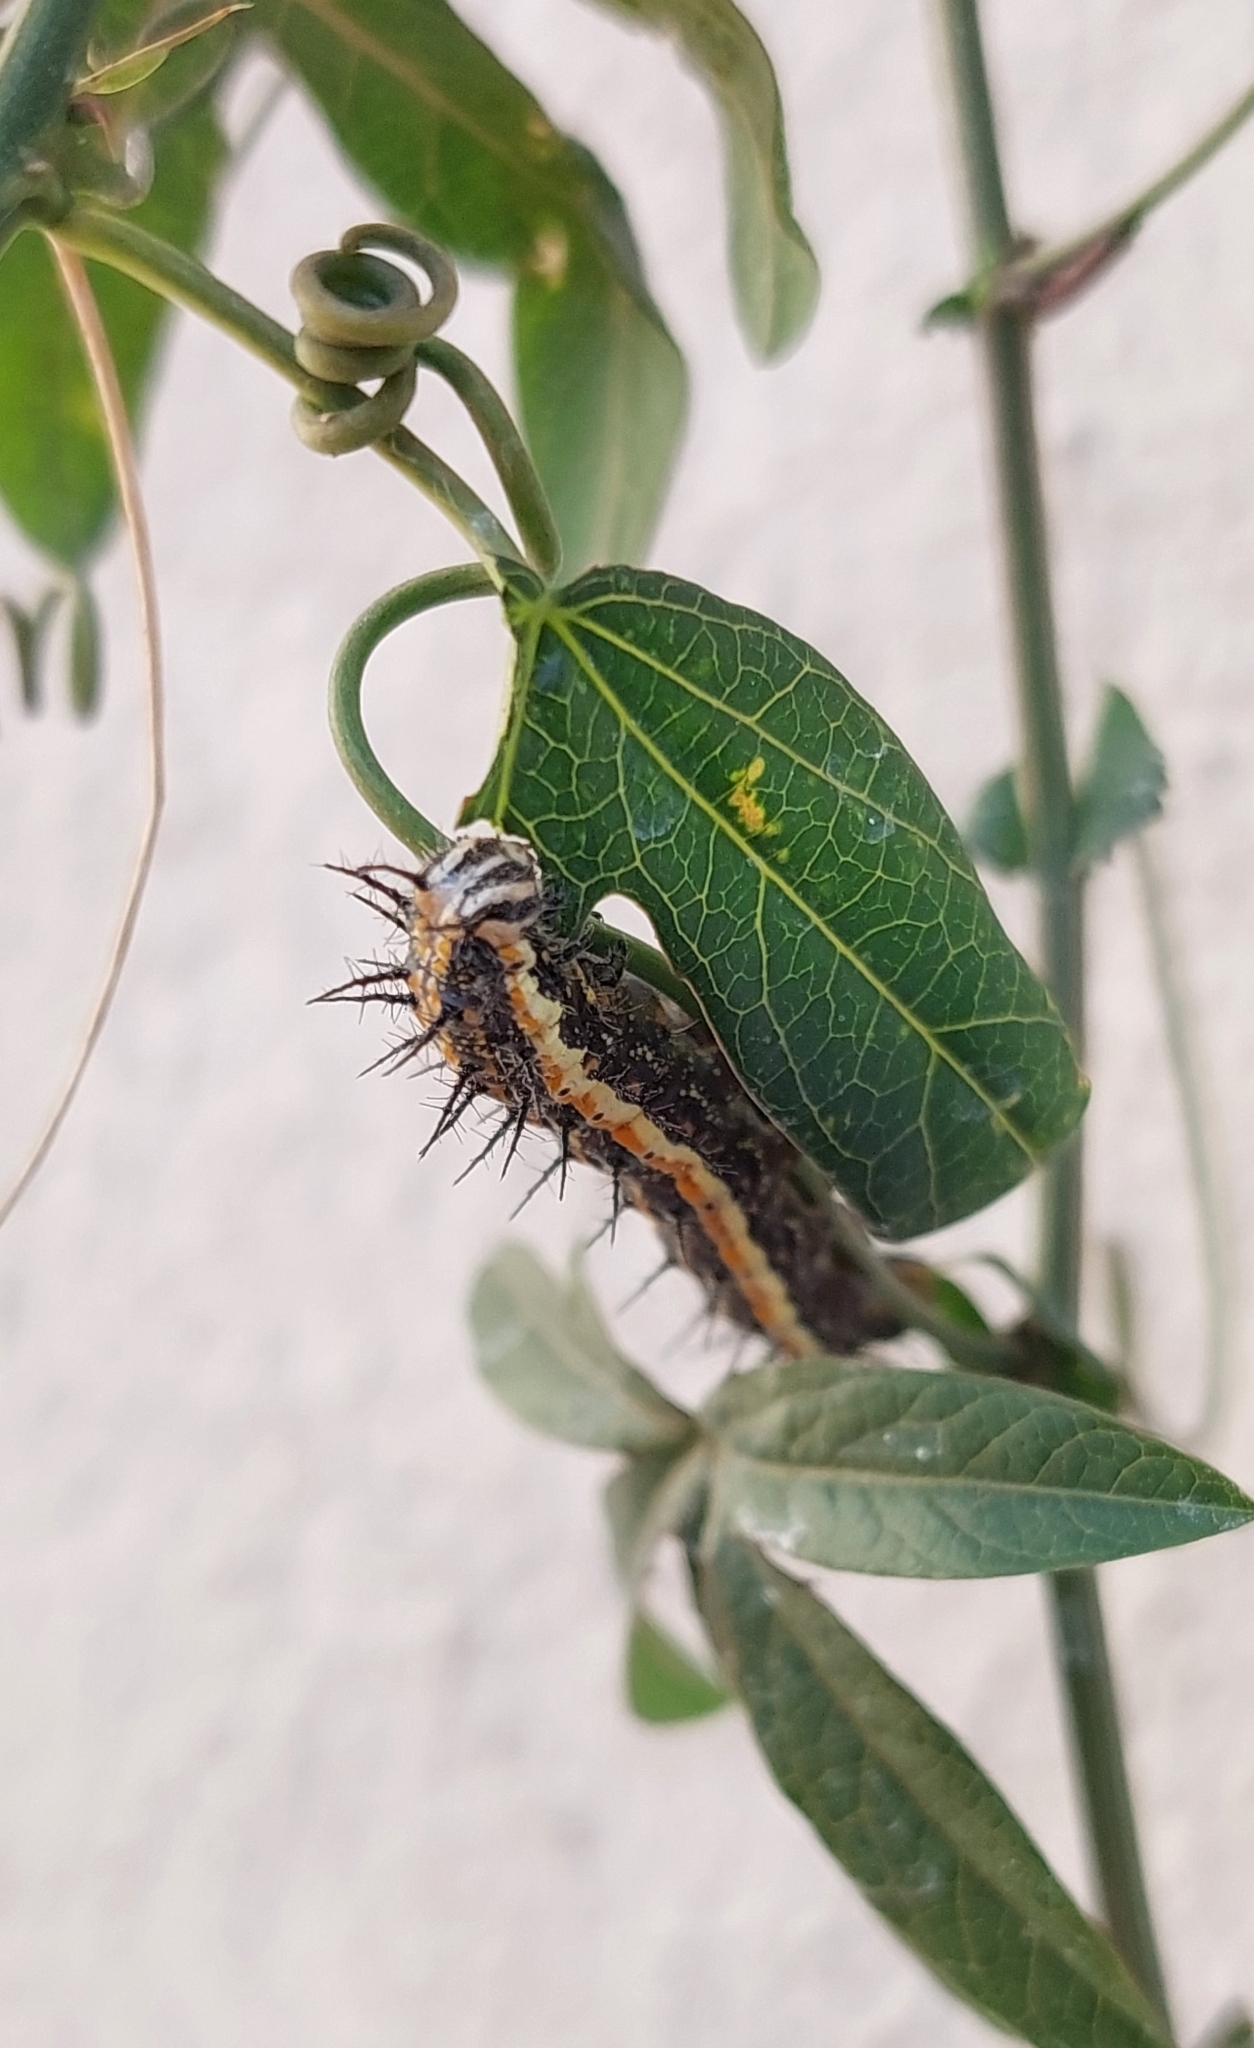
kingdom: Animalia
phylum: Arthropoda
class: Insecta
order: Lepidoptera
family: Nymphalidae
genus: Dione
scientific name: Dione vanillae
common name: Gulf fritillary
